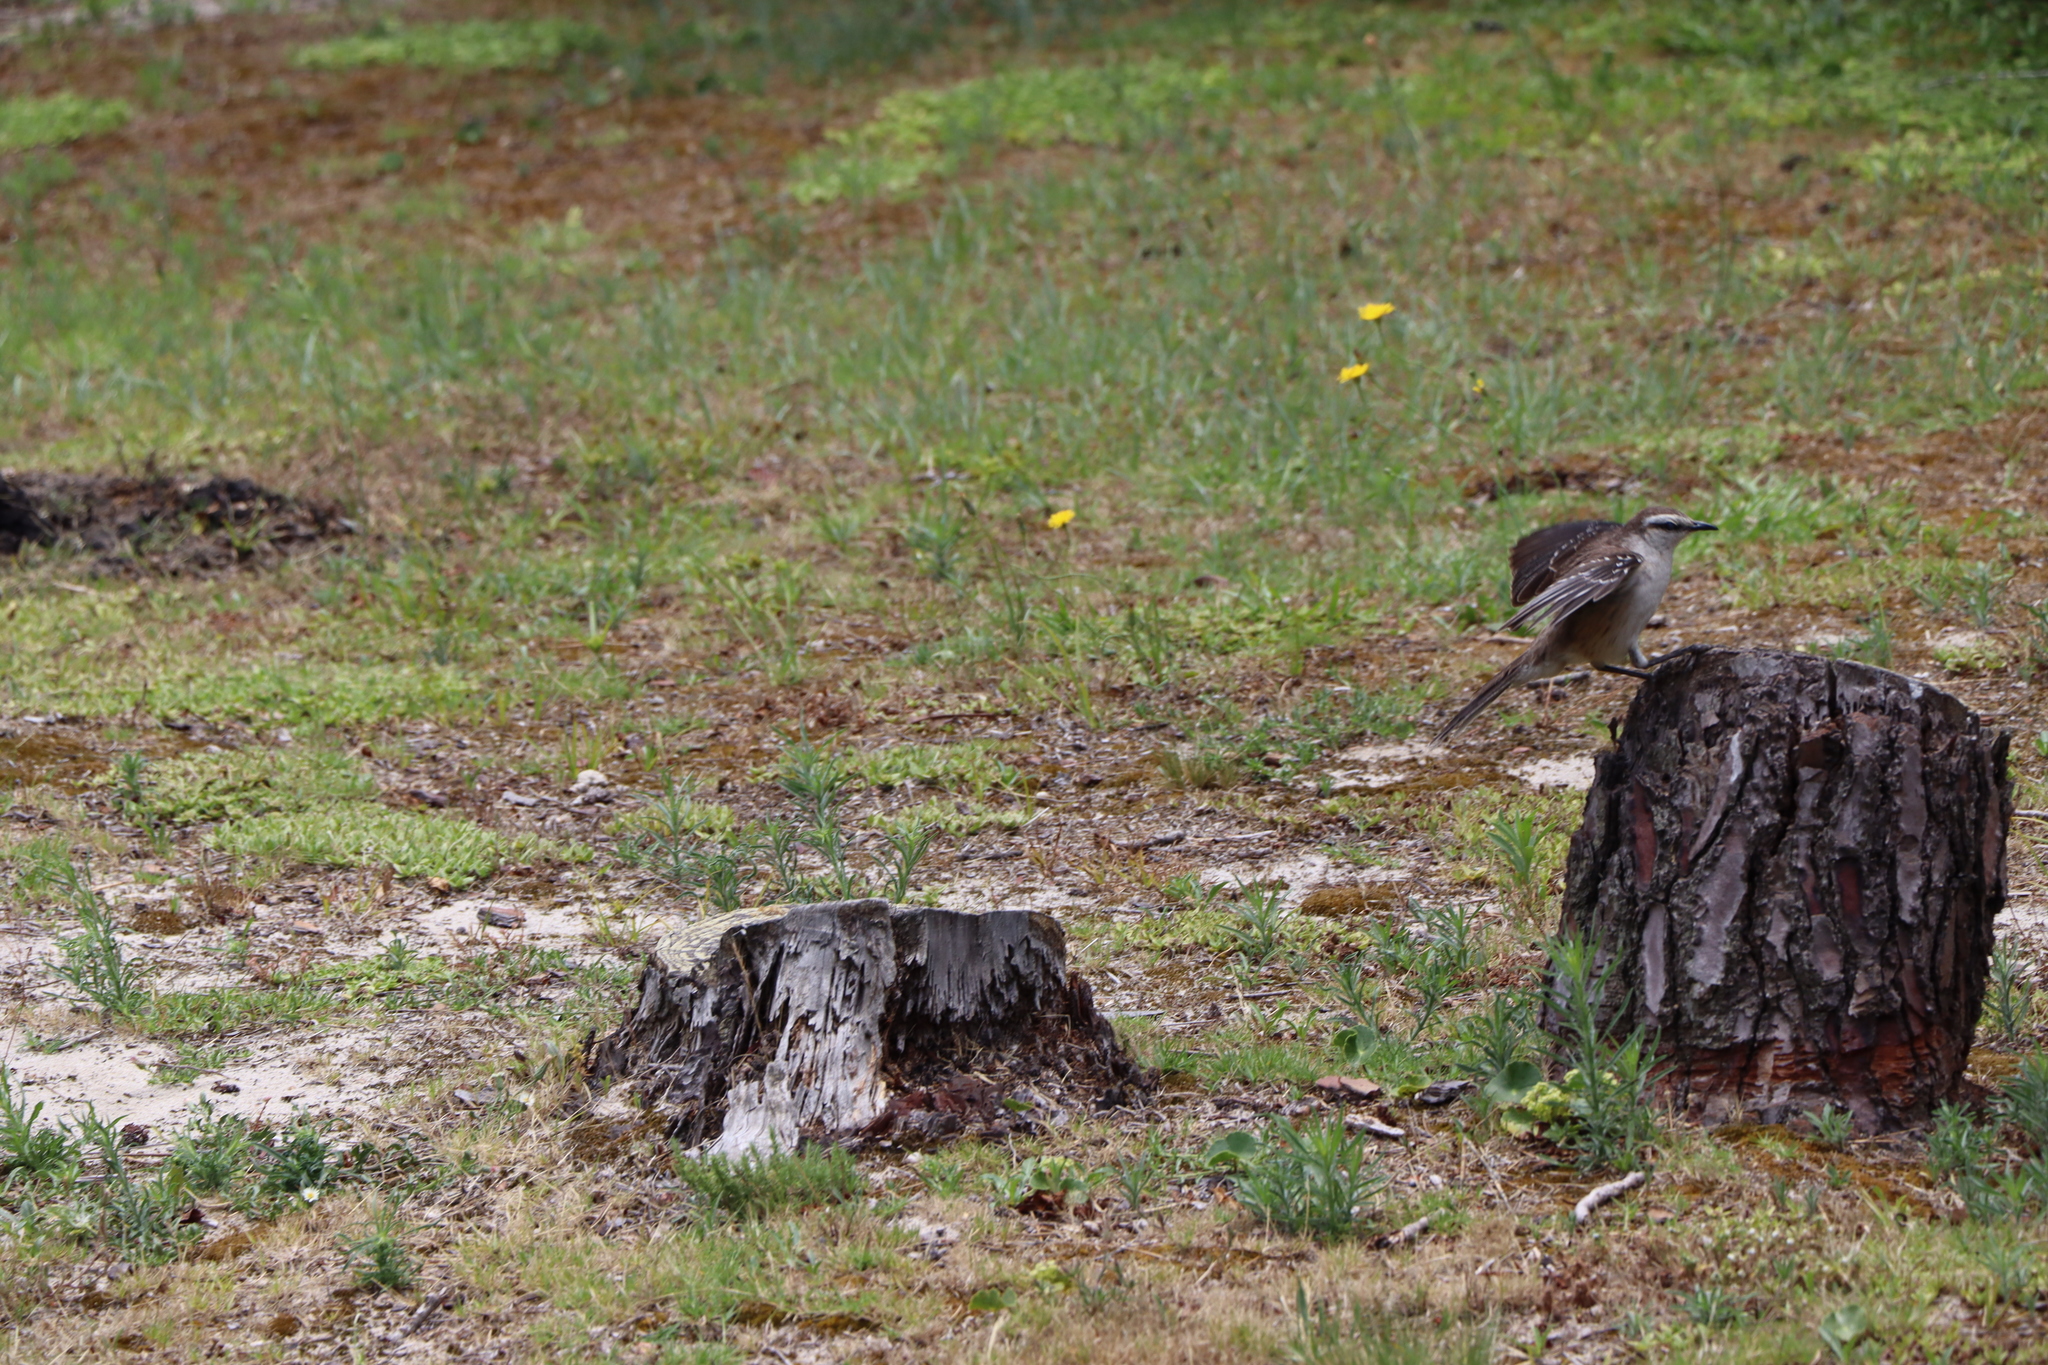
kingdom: Animalia
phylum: Chordata
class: Aves
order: Passeriformes
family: Mimidae
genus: Mimus
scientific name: Mimus saturninus
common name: Chalk-browed mockingbird
